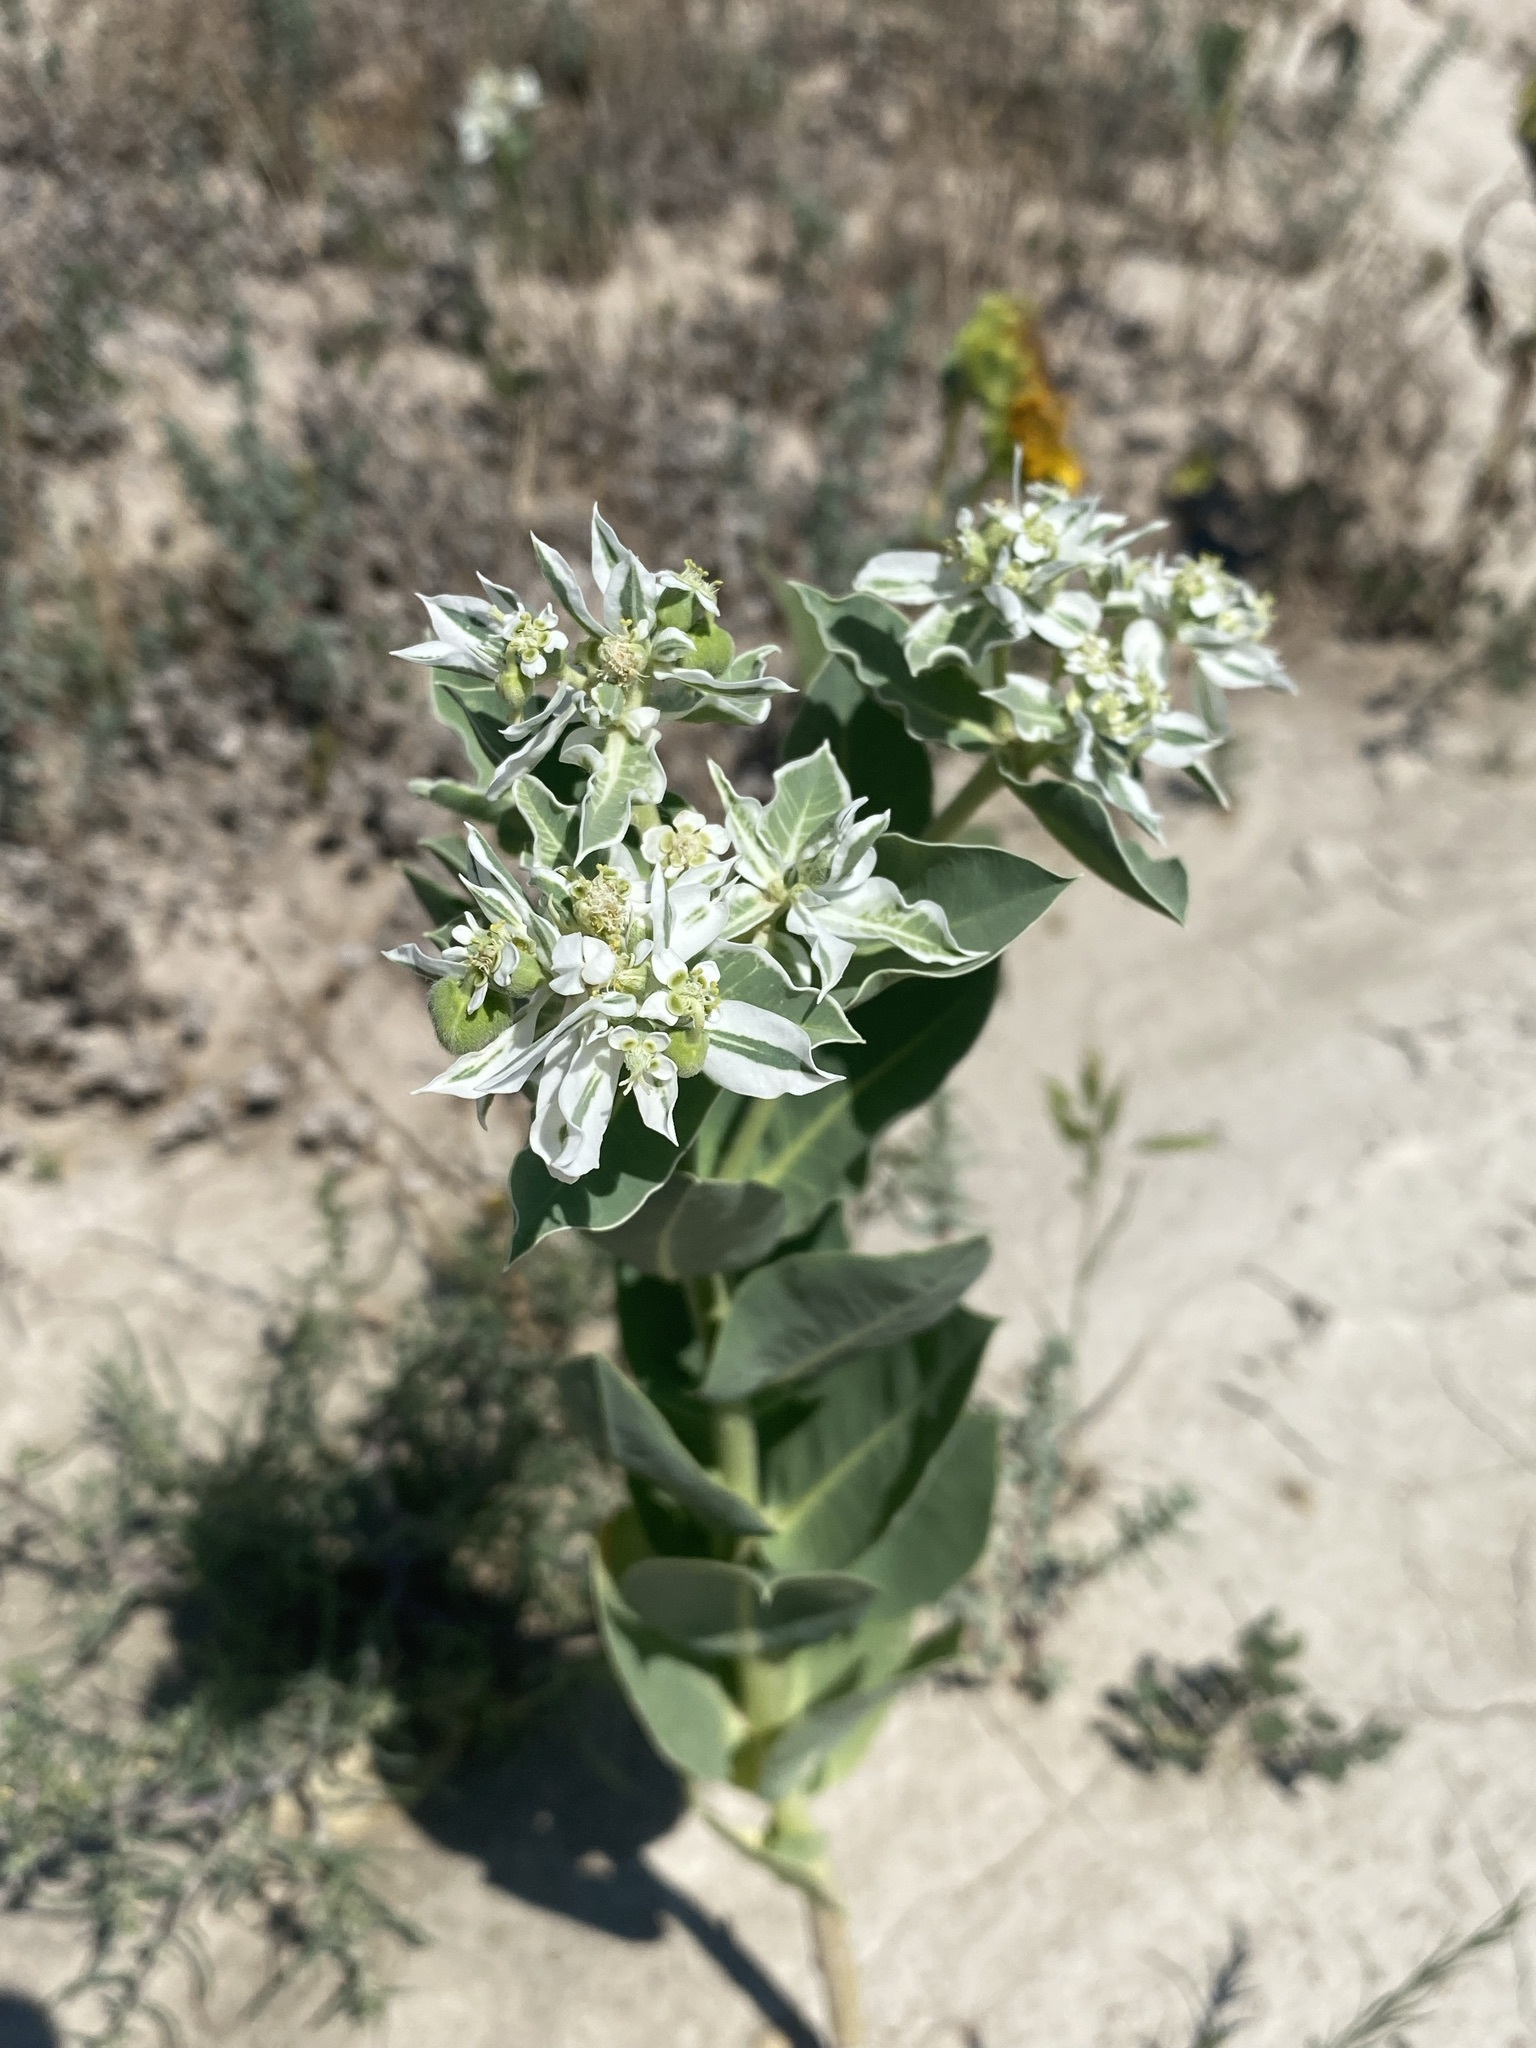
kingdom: Plantae
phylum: Tracheophyta
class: Magnoliopsida
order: Malpighiales
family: Euphorbiaceae
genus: Euphorbia
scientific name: Euphorbia marginata
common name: Ghostweed
